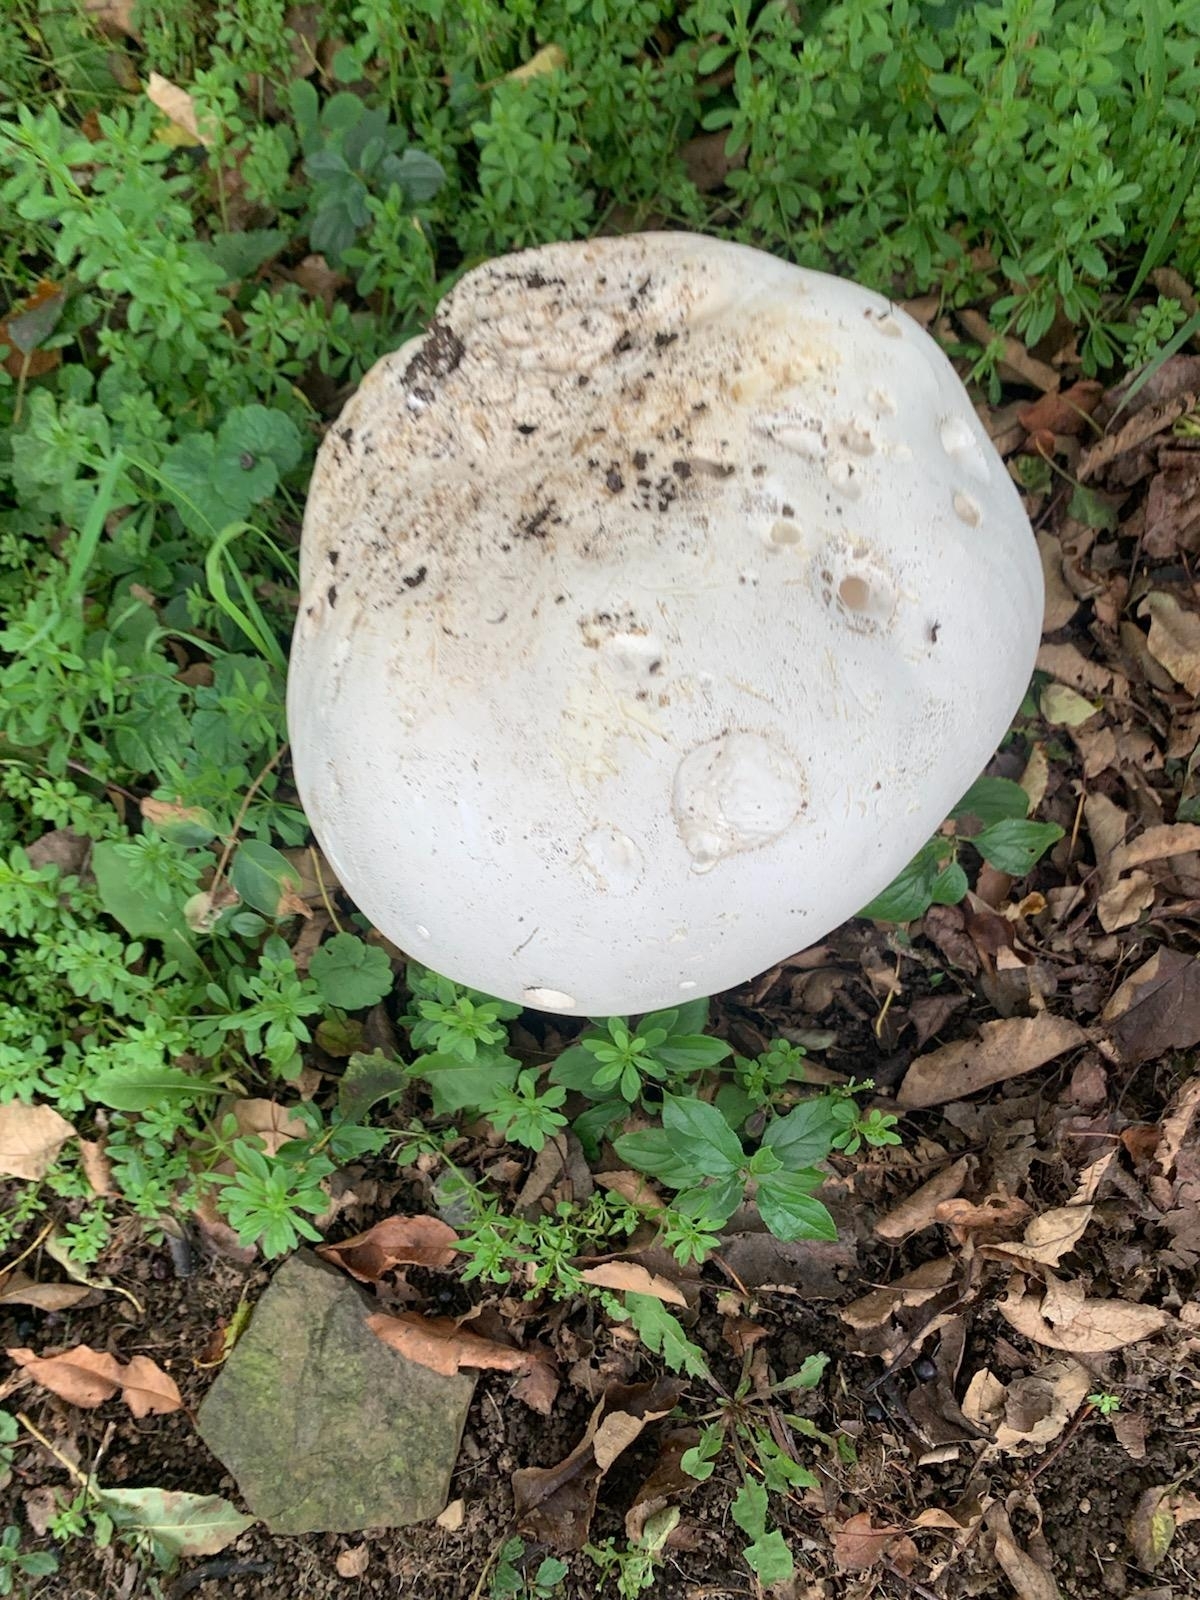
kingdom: Fungi
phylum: Basidiomycota
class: Agaricomycetes
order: Agaricales
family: Lycoperdaceae
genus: Calvatia
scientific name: Calvatia gigantea
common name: Giant puffball
